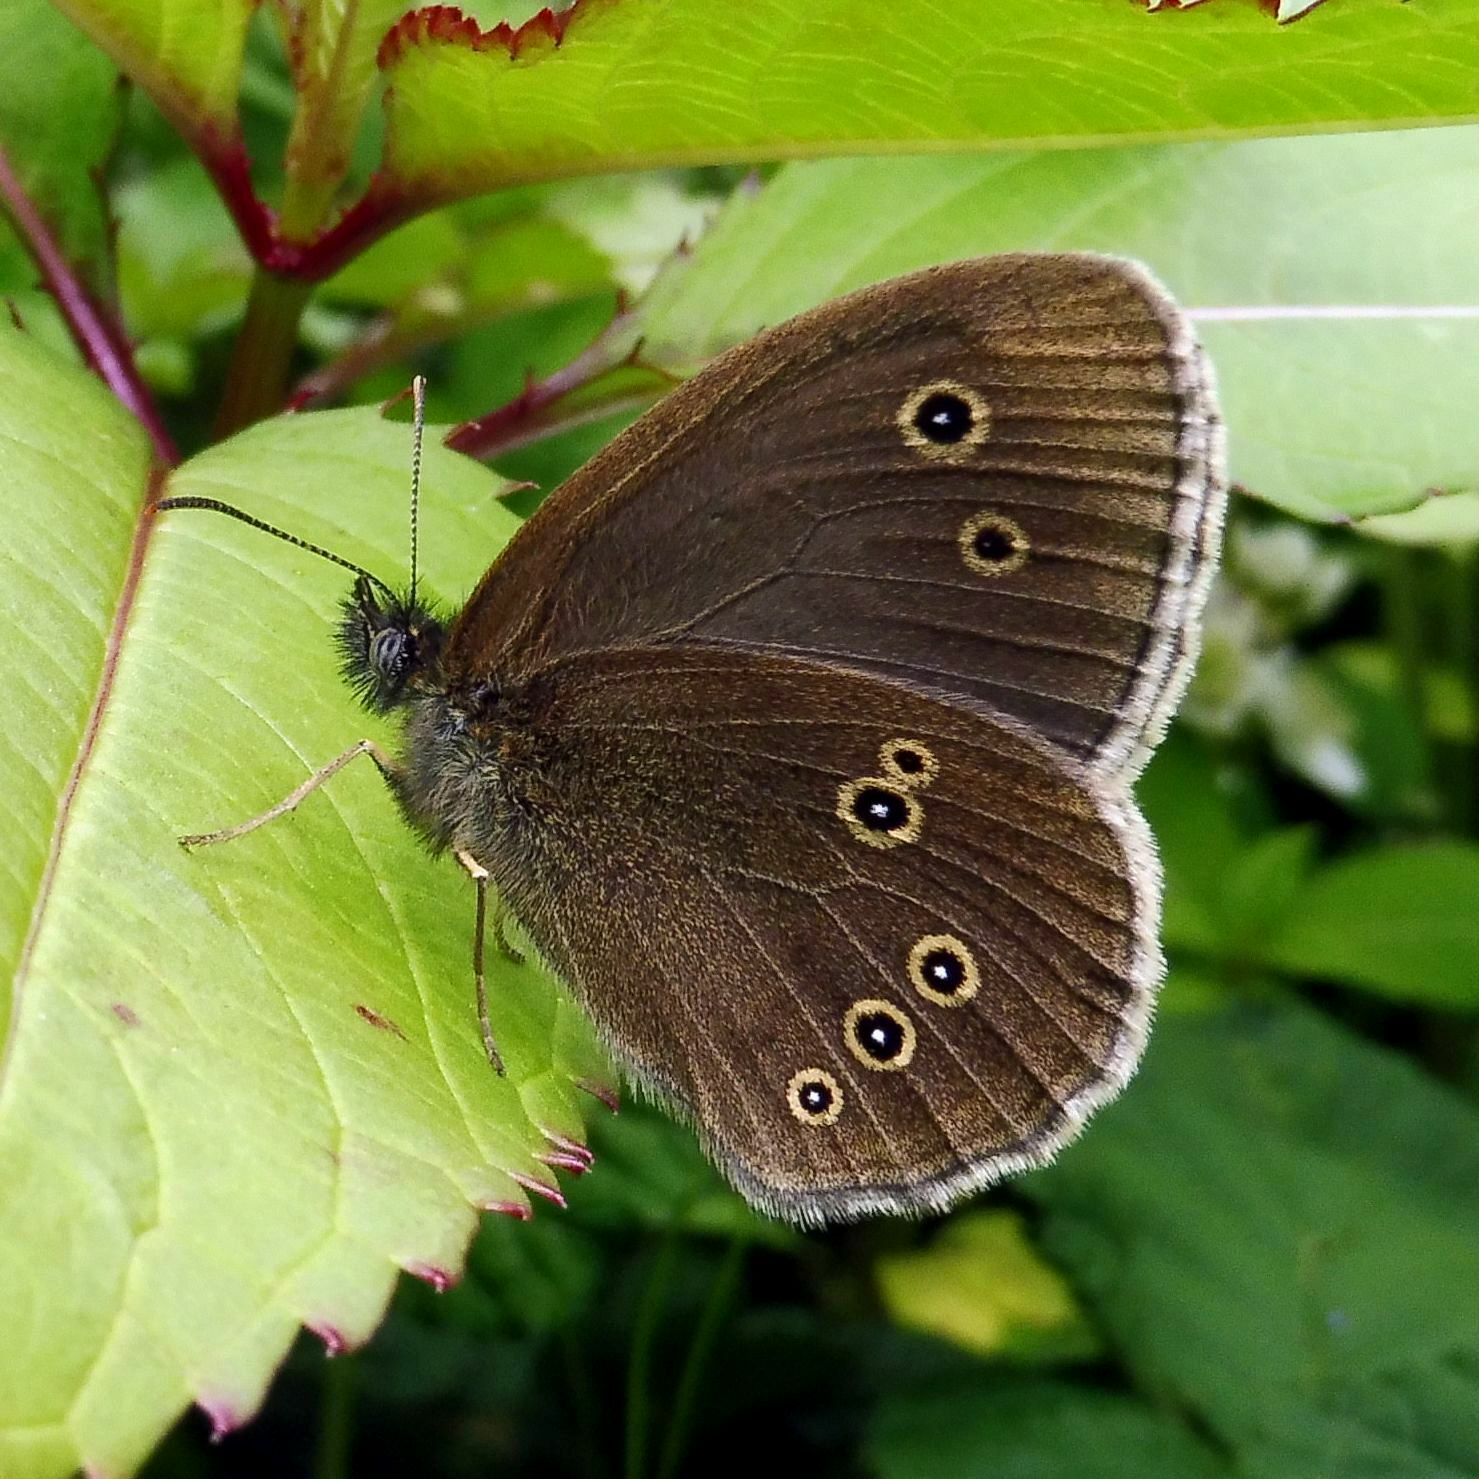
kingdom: Animalia
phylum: Arthropoda
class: Insecta
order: Lepidoptera
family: Nymphalidae
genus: Aphantopus
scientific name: Aphantopus hyperantus
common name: Ringlet
